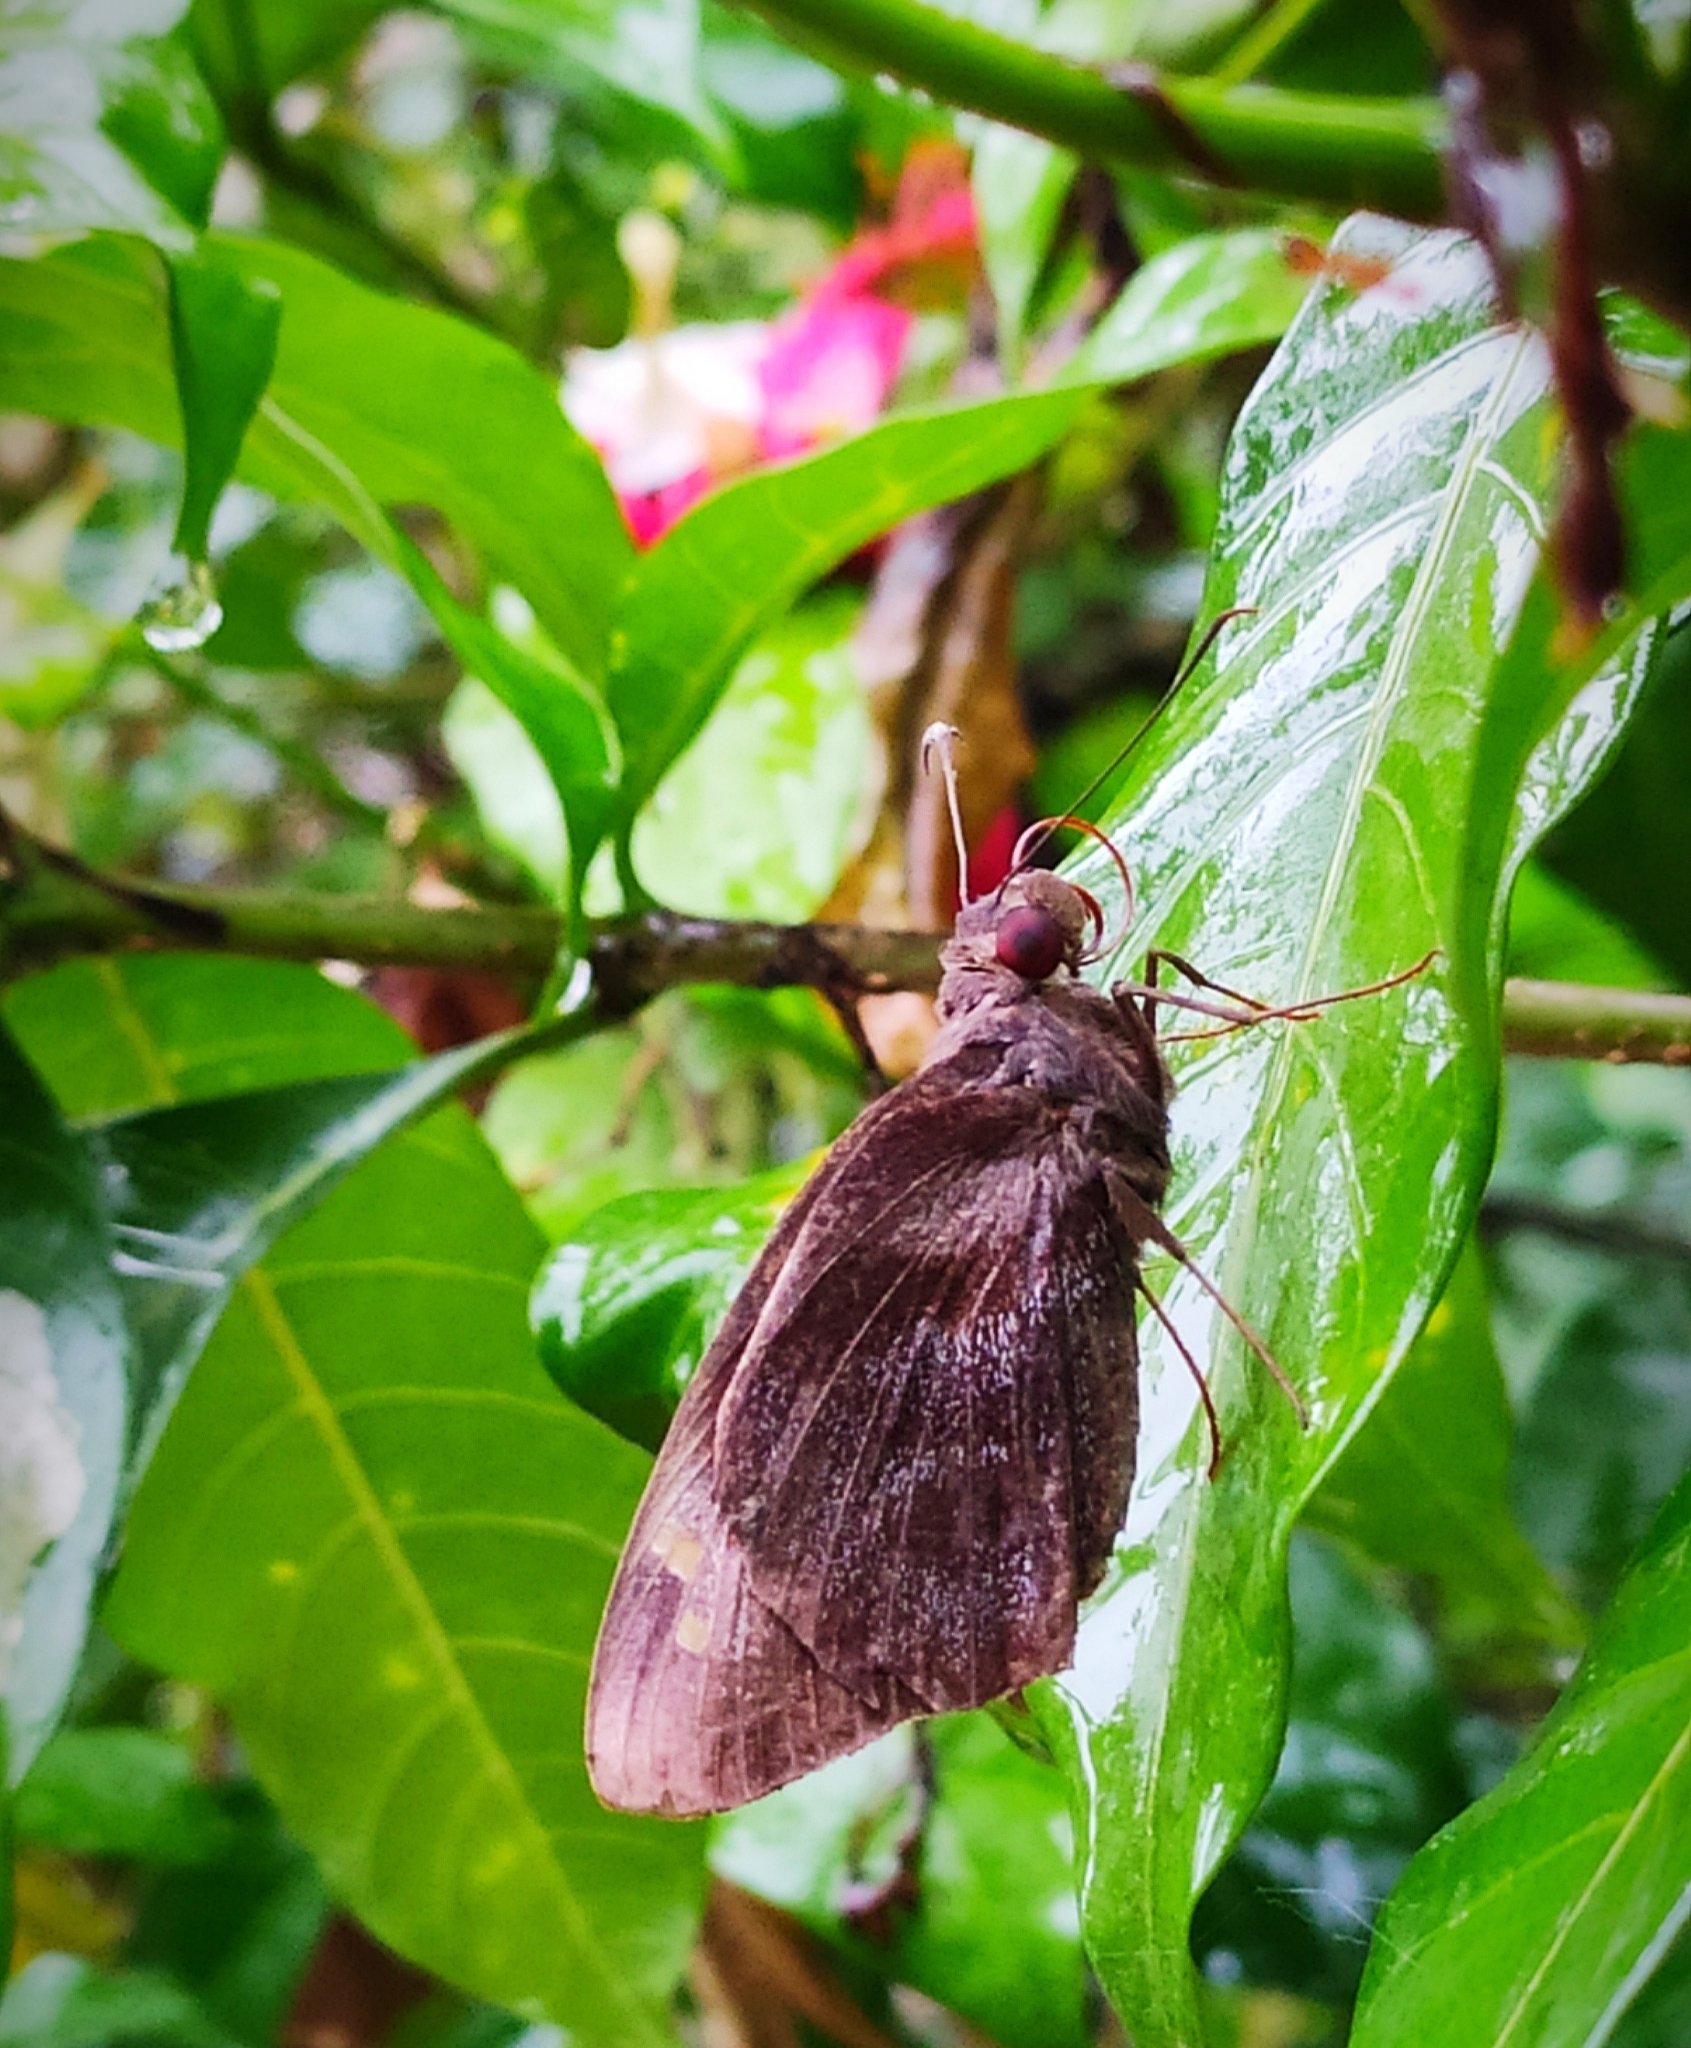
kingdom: Animalia
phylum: Arthropoda
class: Insecta
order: Lepidoptera
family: Hesperiidae
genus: Gangara
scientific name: Gangara thyrsis
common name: Giant redeye
